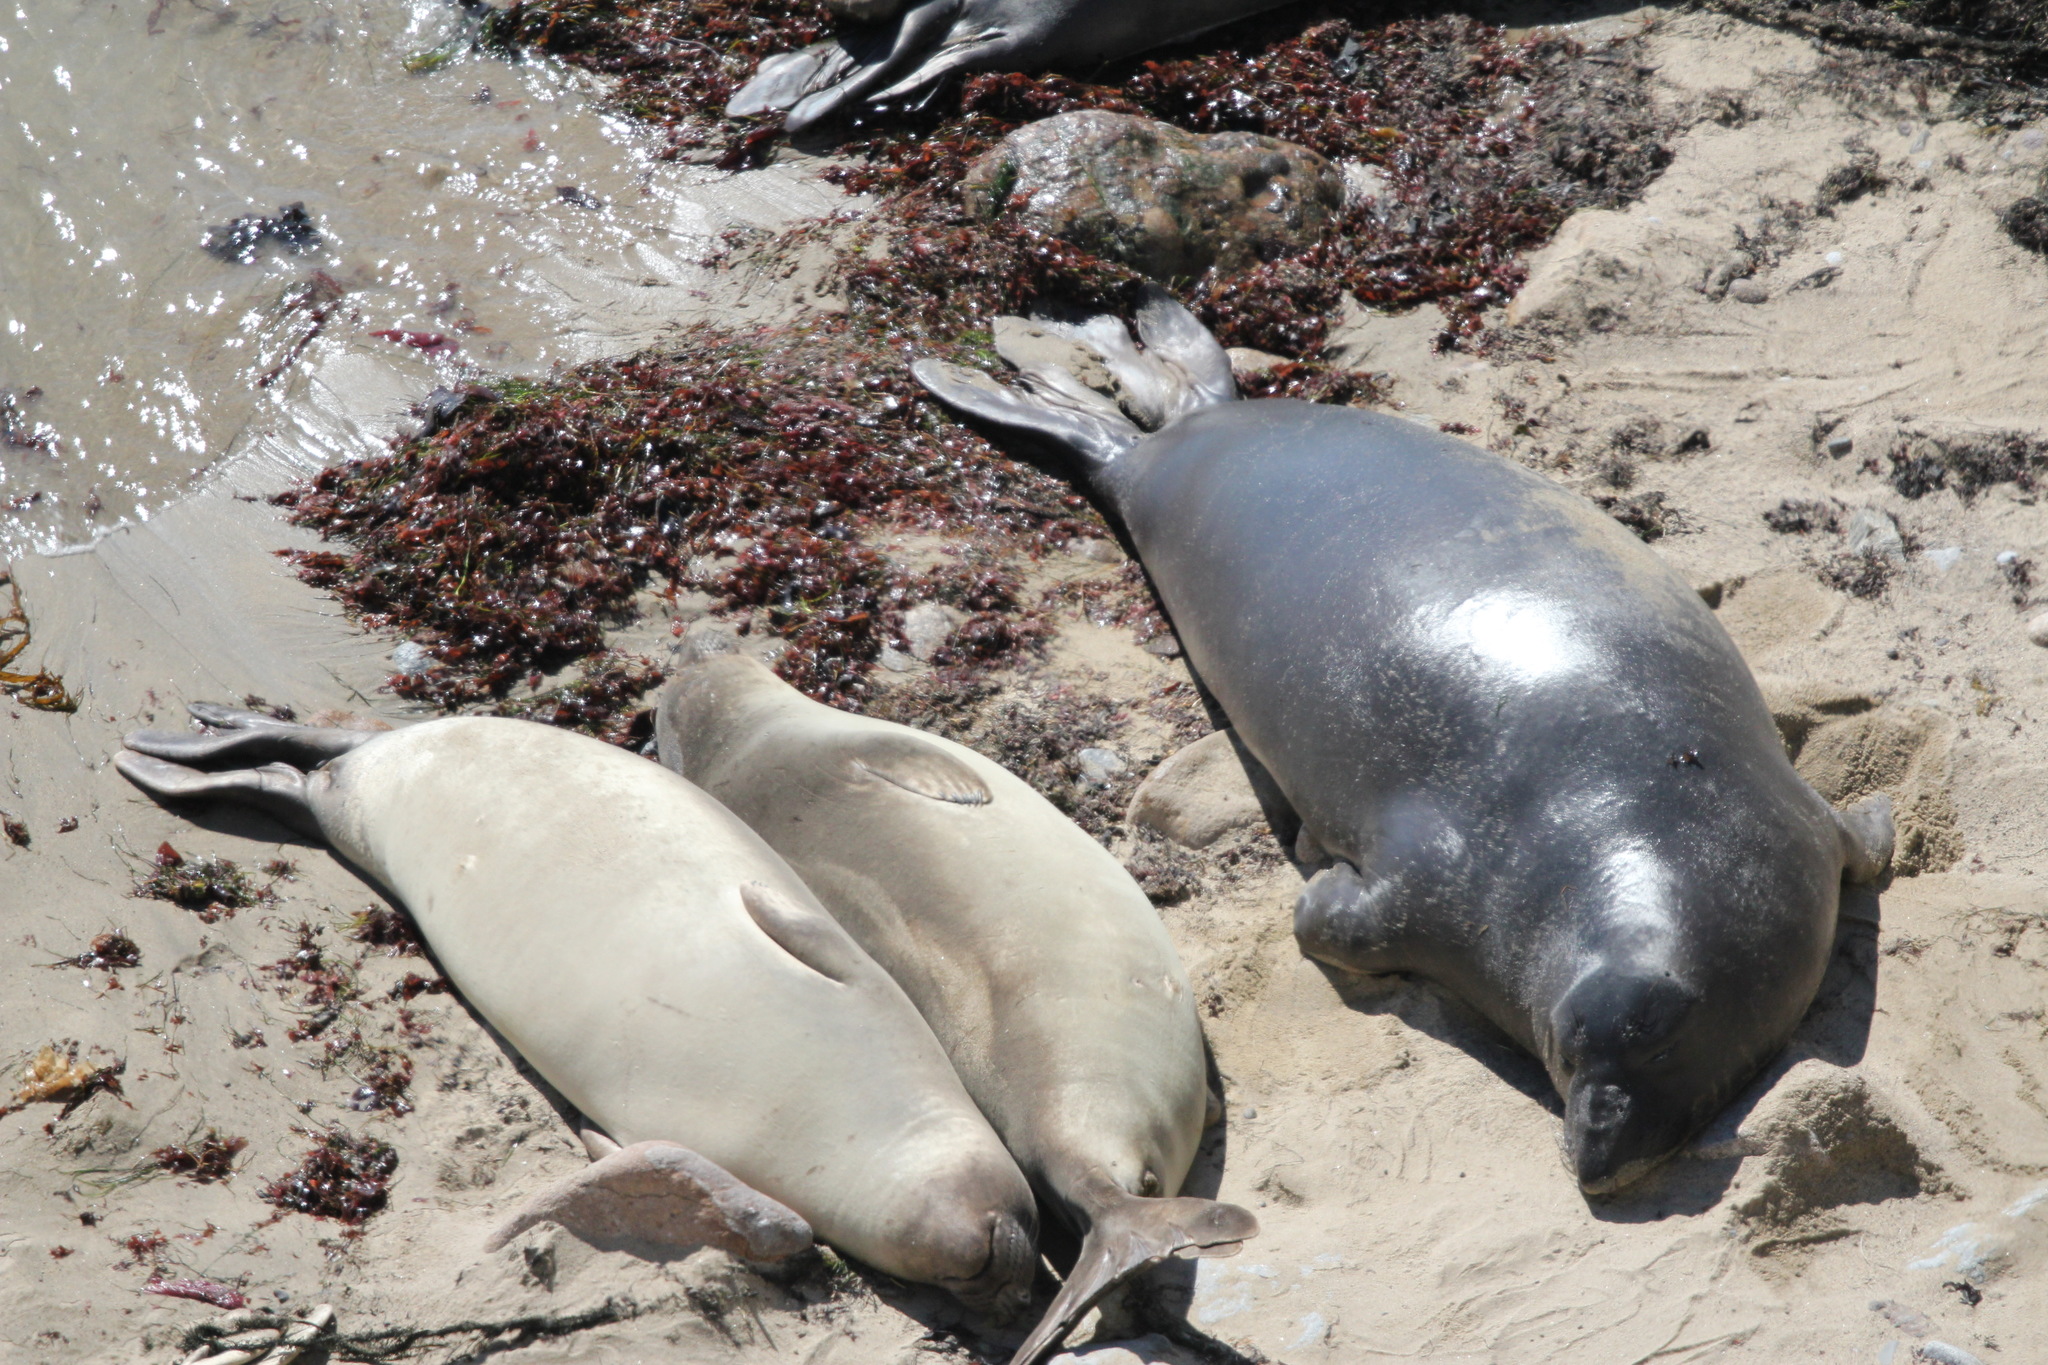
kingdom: Animalia
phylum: Chordata
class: Mammalia
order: Carnivora
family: Phocidae
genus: Mirounga
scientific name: Mirounga angustirostris
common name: Northern elephant seal
